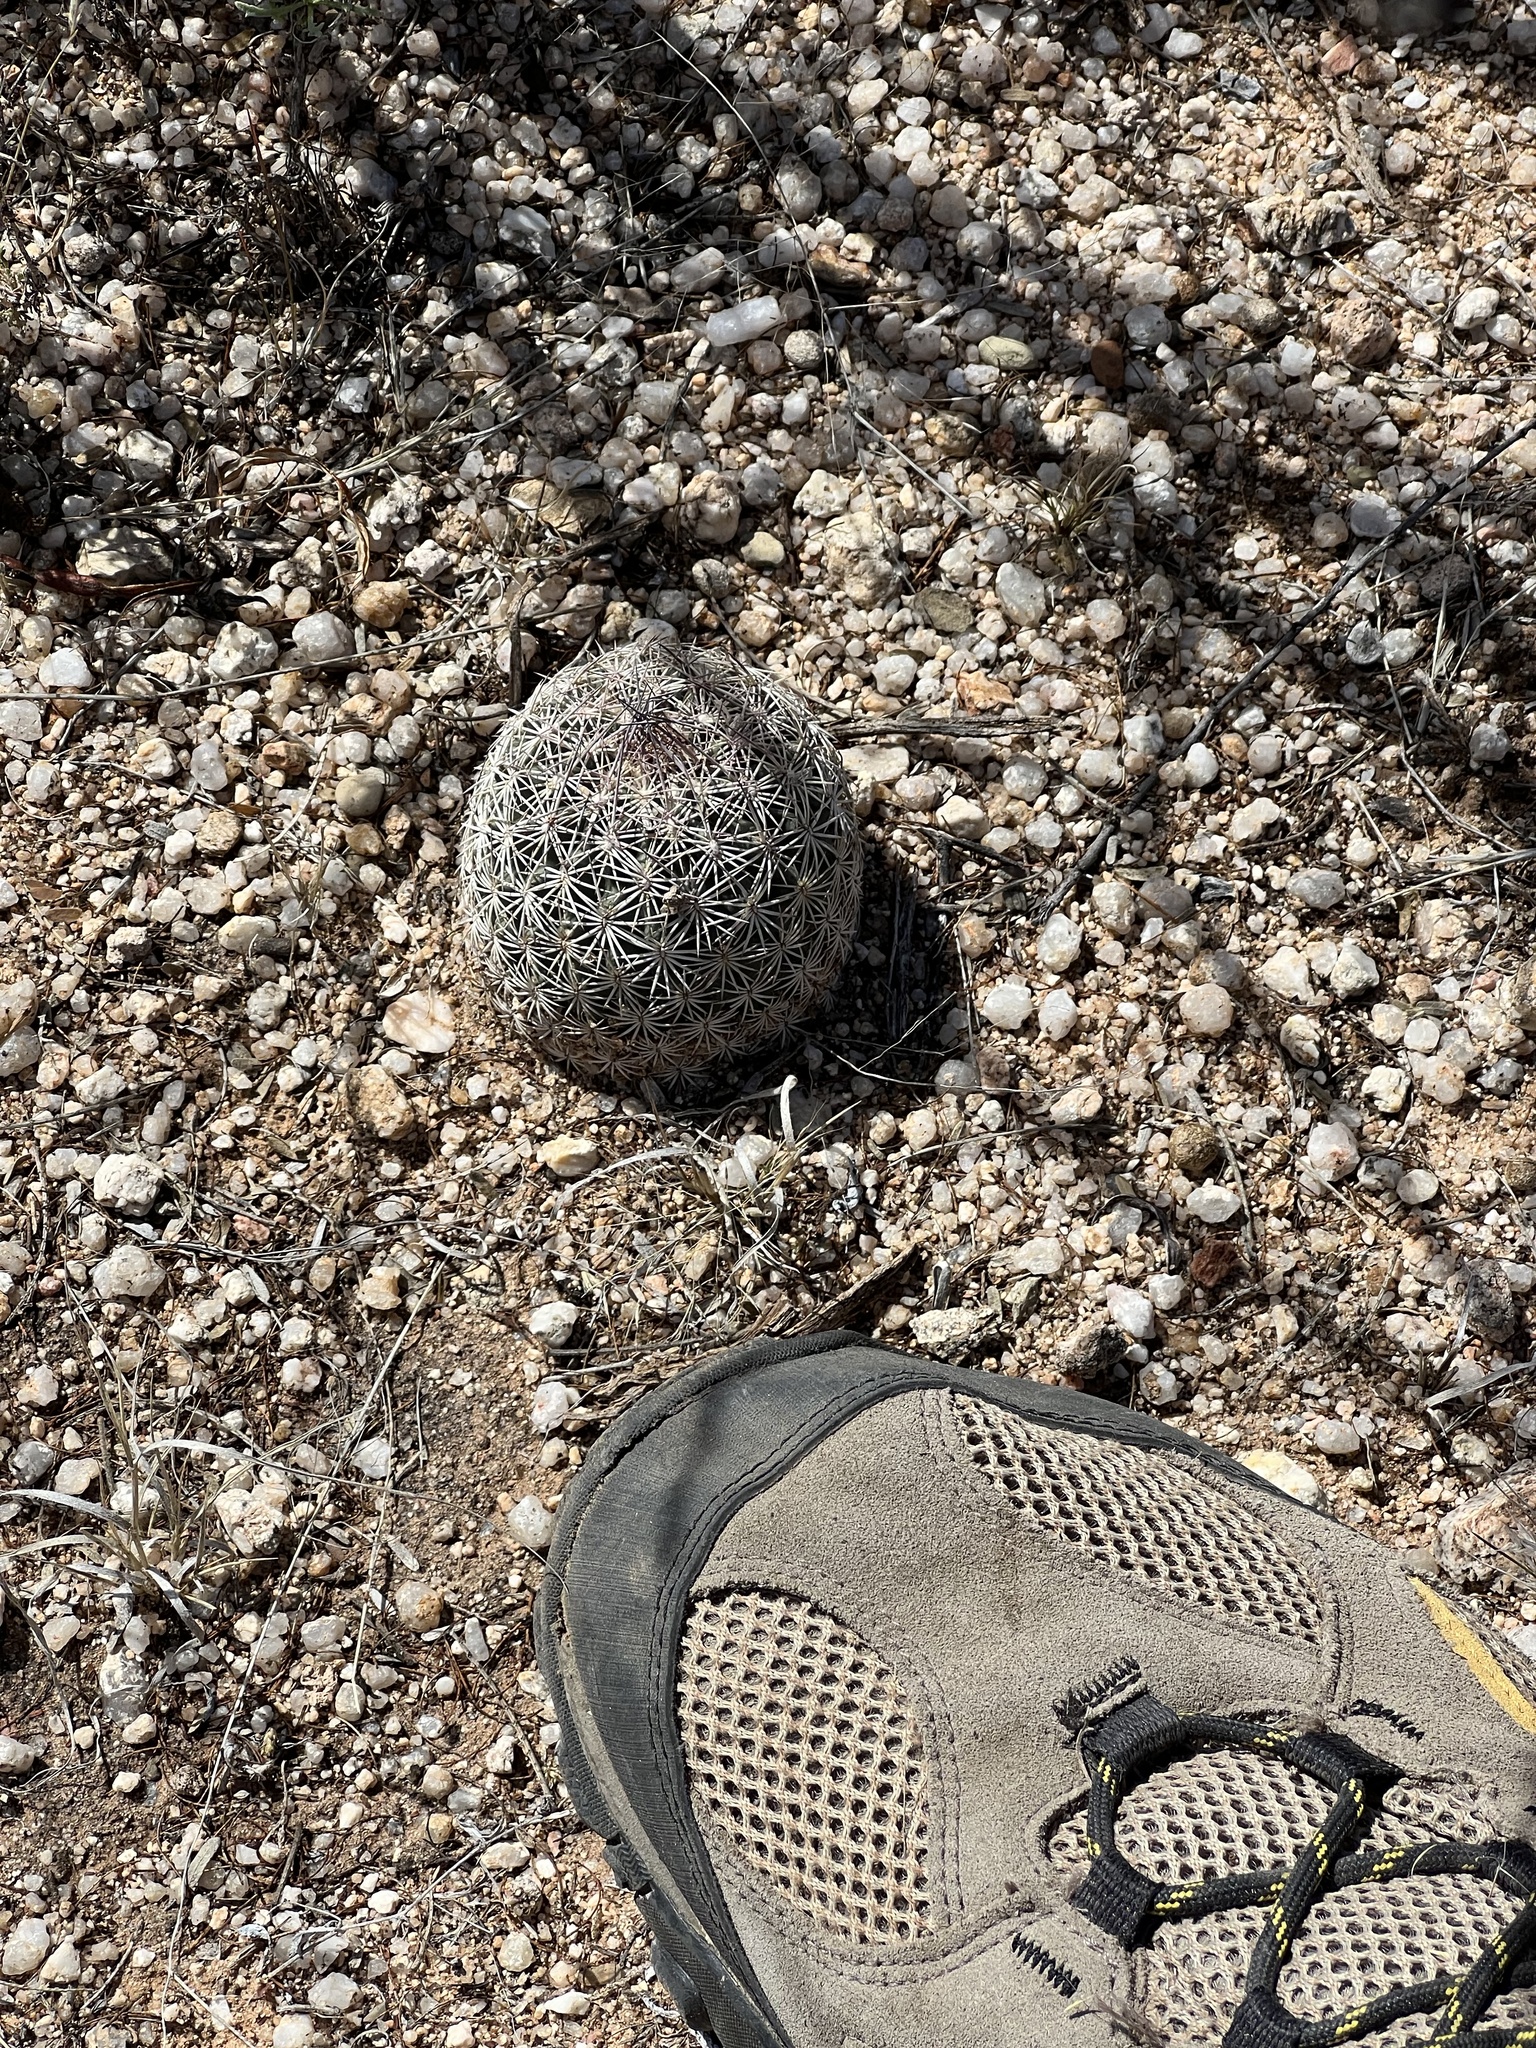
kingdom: Plantae
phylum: Tracheophyta
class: Magnoliopsida
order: Caryophyllales
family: Cactaceae
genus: Sclerocactus
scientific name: Sclerocactus johnsonii
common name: Eight-spine fishhook cactus
